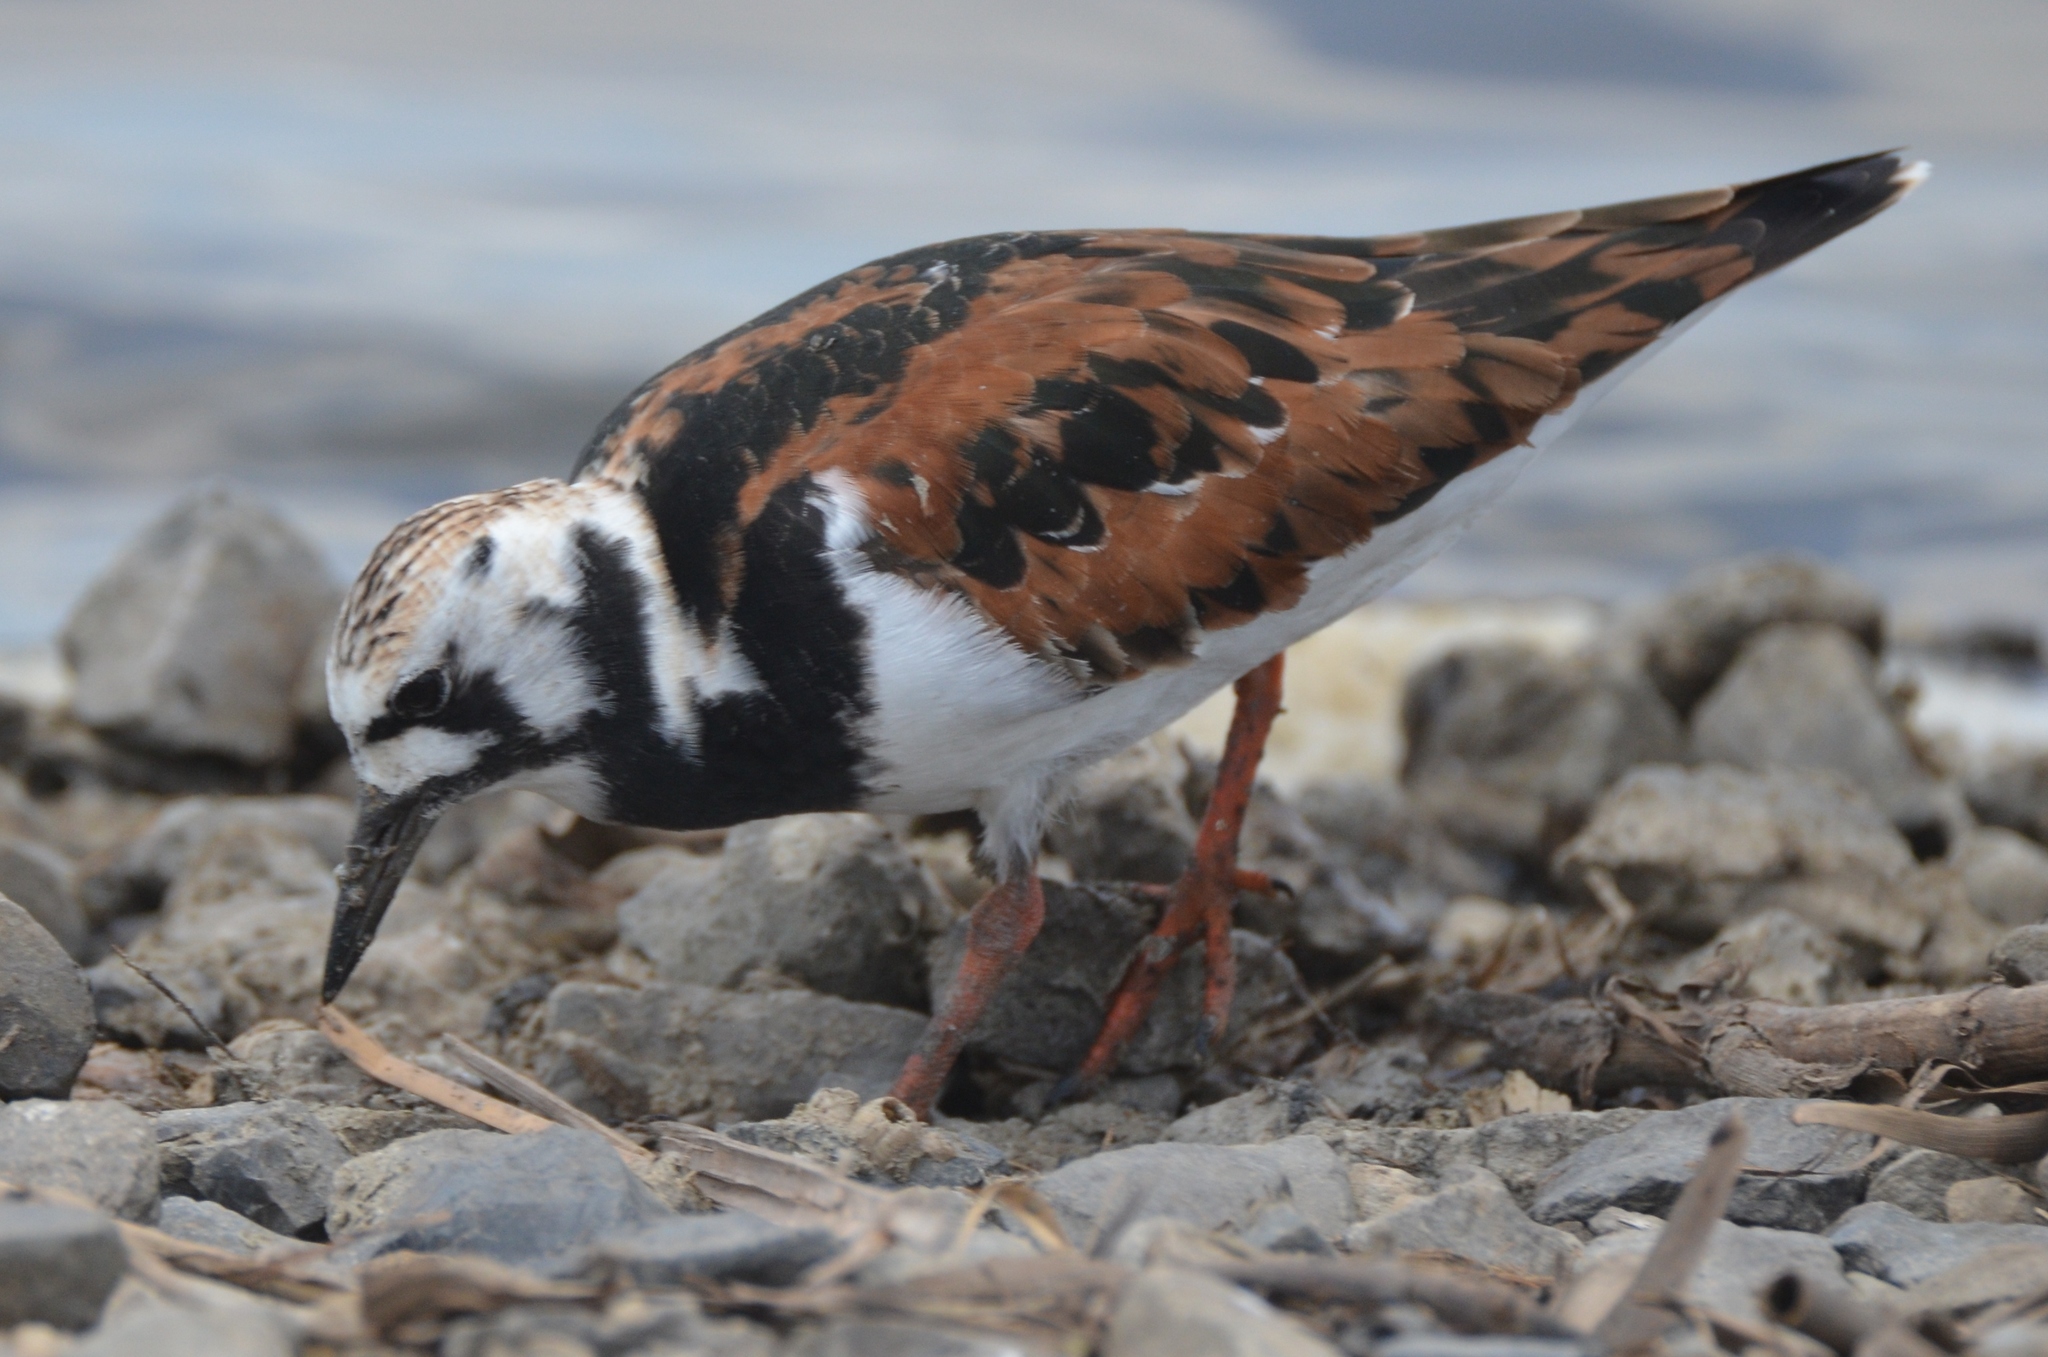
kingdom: Animalia
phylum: Chordata
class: Aves
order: Charadriiformes
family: Scolopacidae
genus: Arenaria
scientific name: Arenaria interpres
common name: Ruddy turnstone
